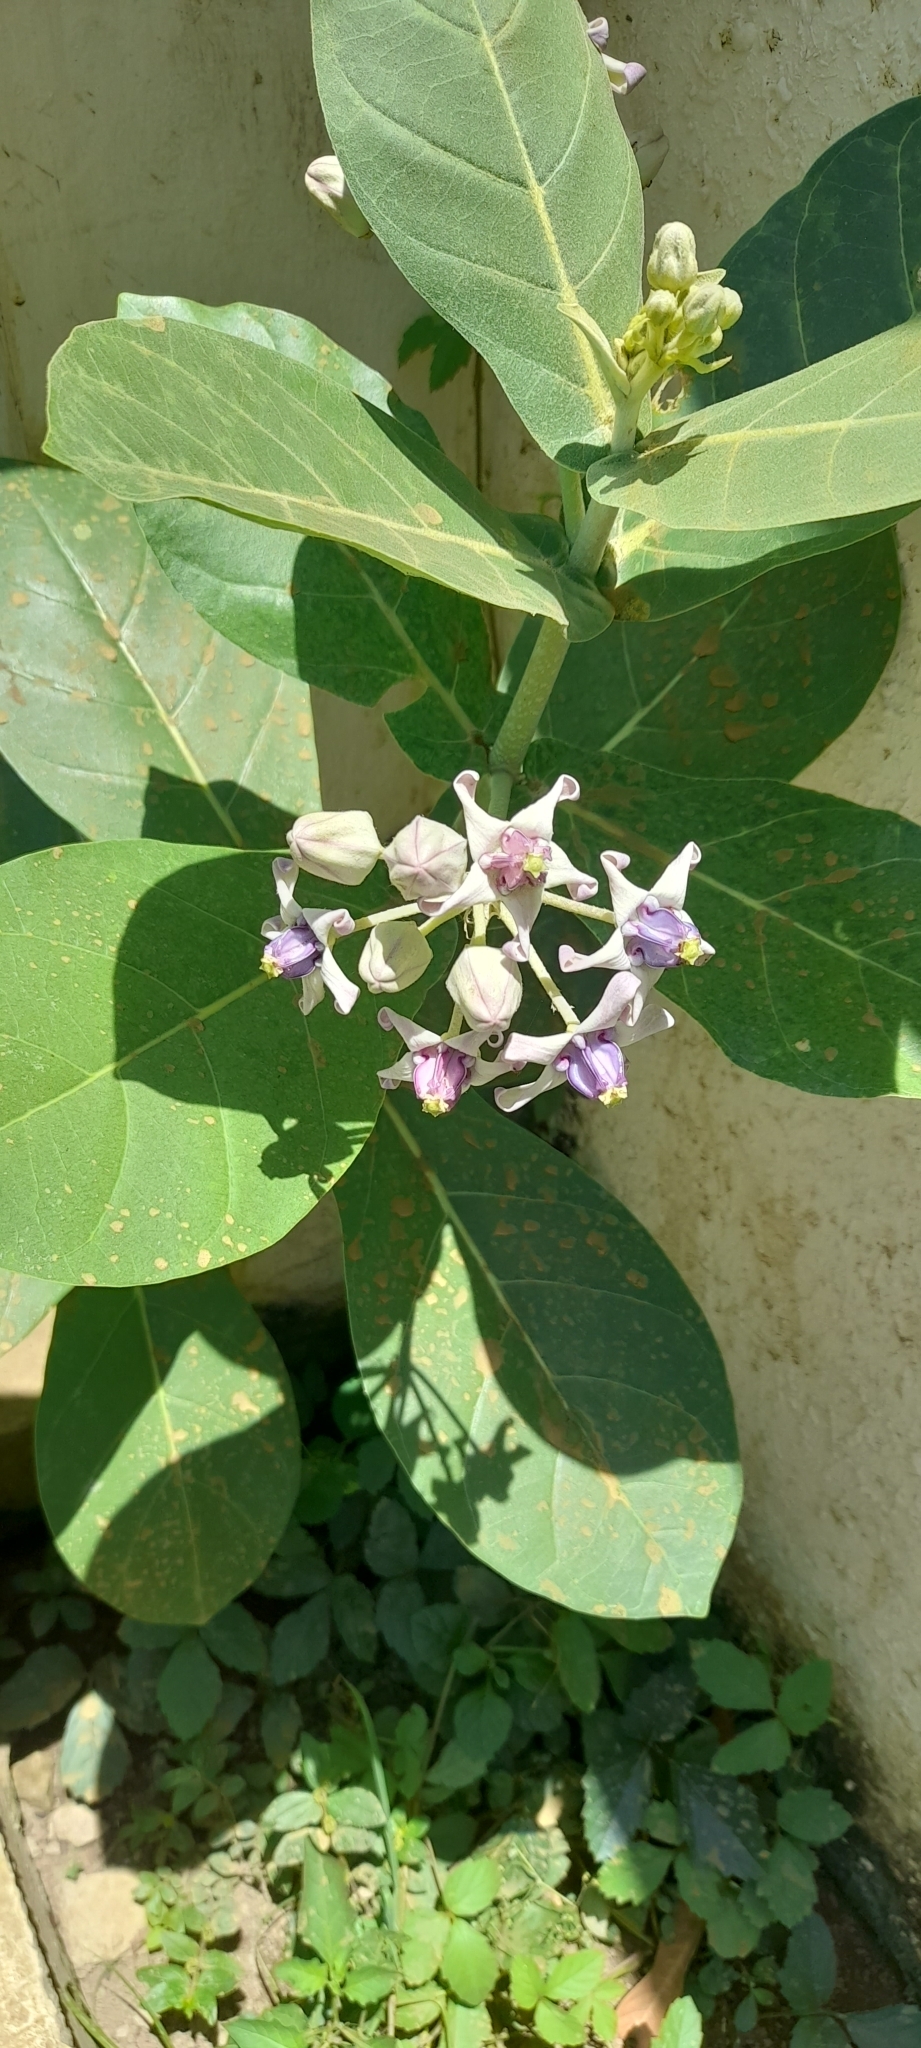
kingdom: Plantae
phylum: Tracheophyta
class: Magnoliopsida
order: Gentianales
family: Apocynaceae
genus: Calotropis
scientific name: Calotropis gigantea
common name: Crown flower
